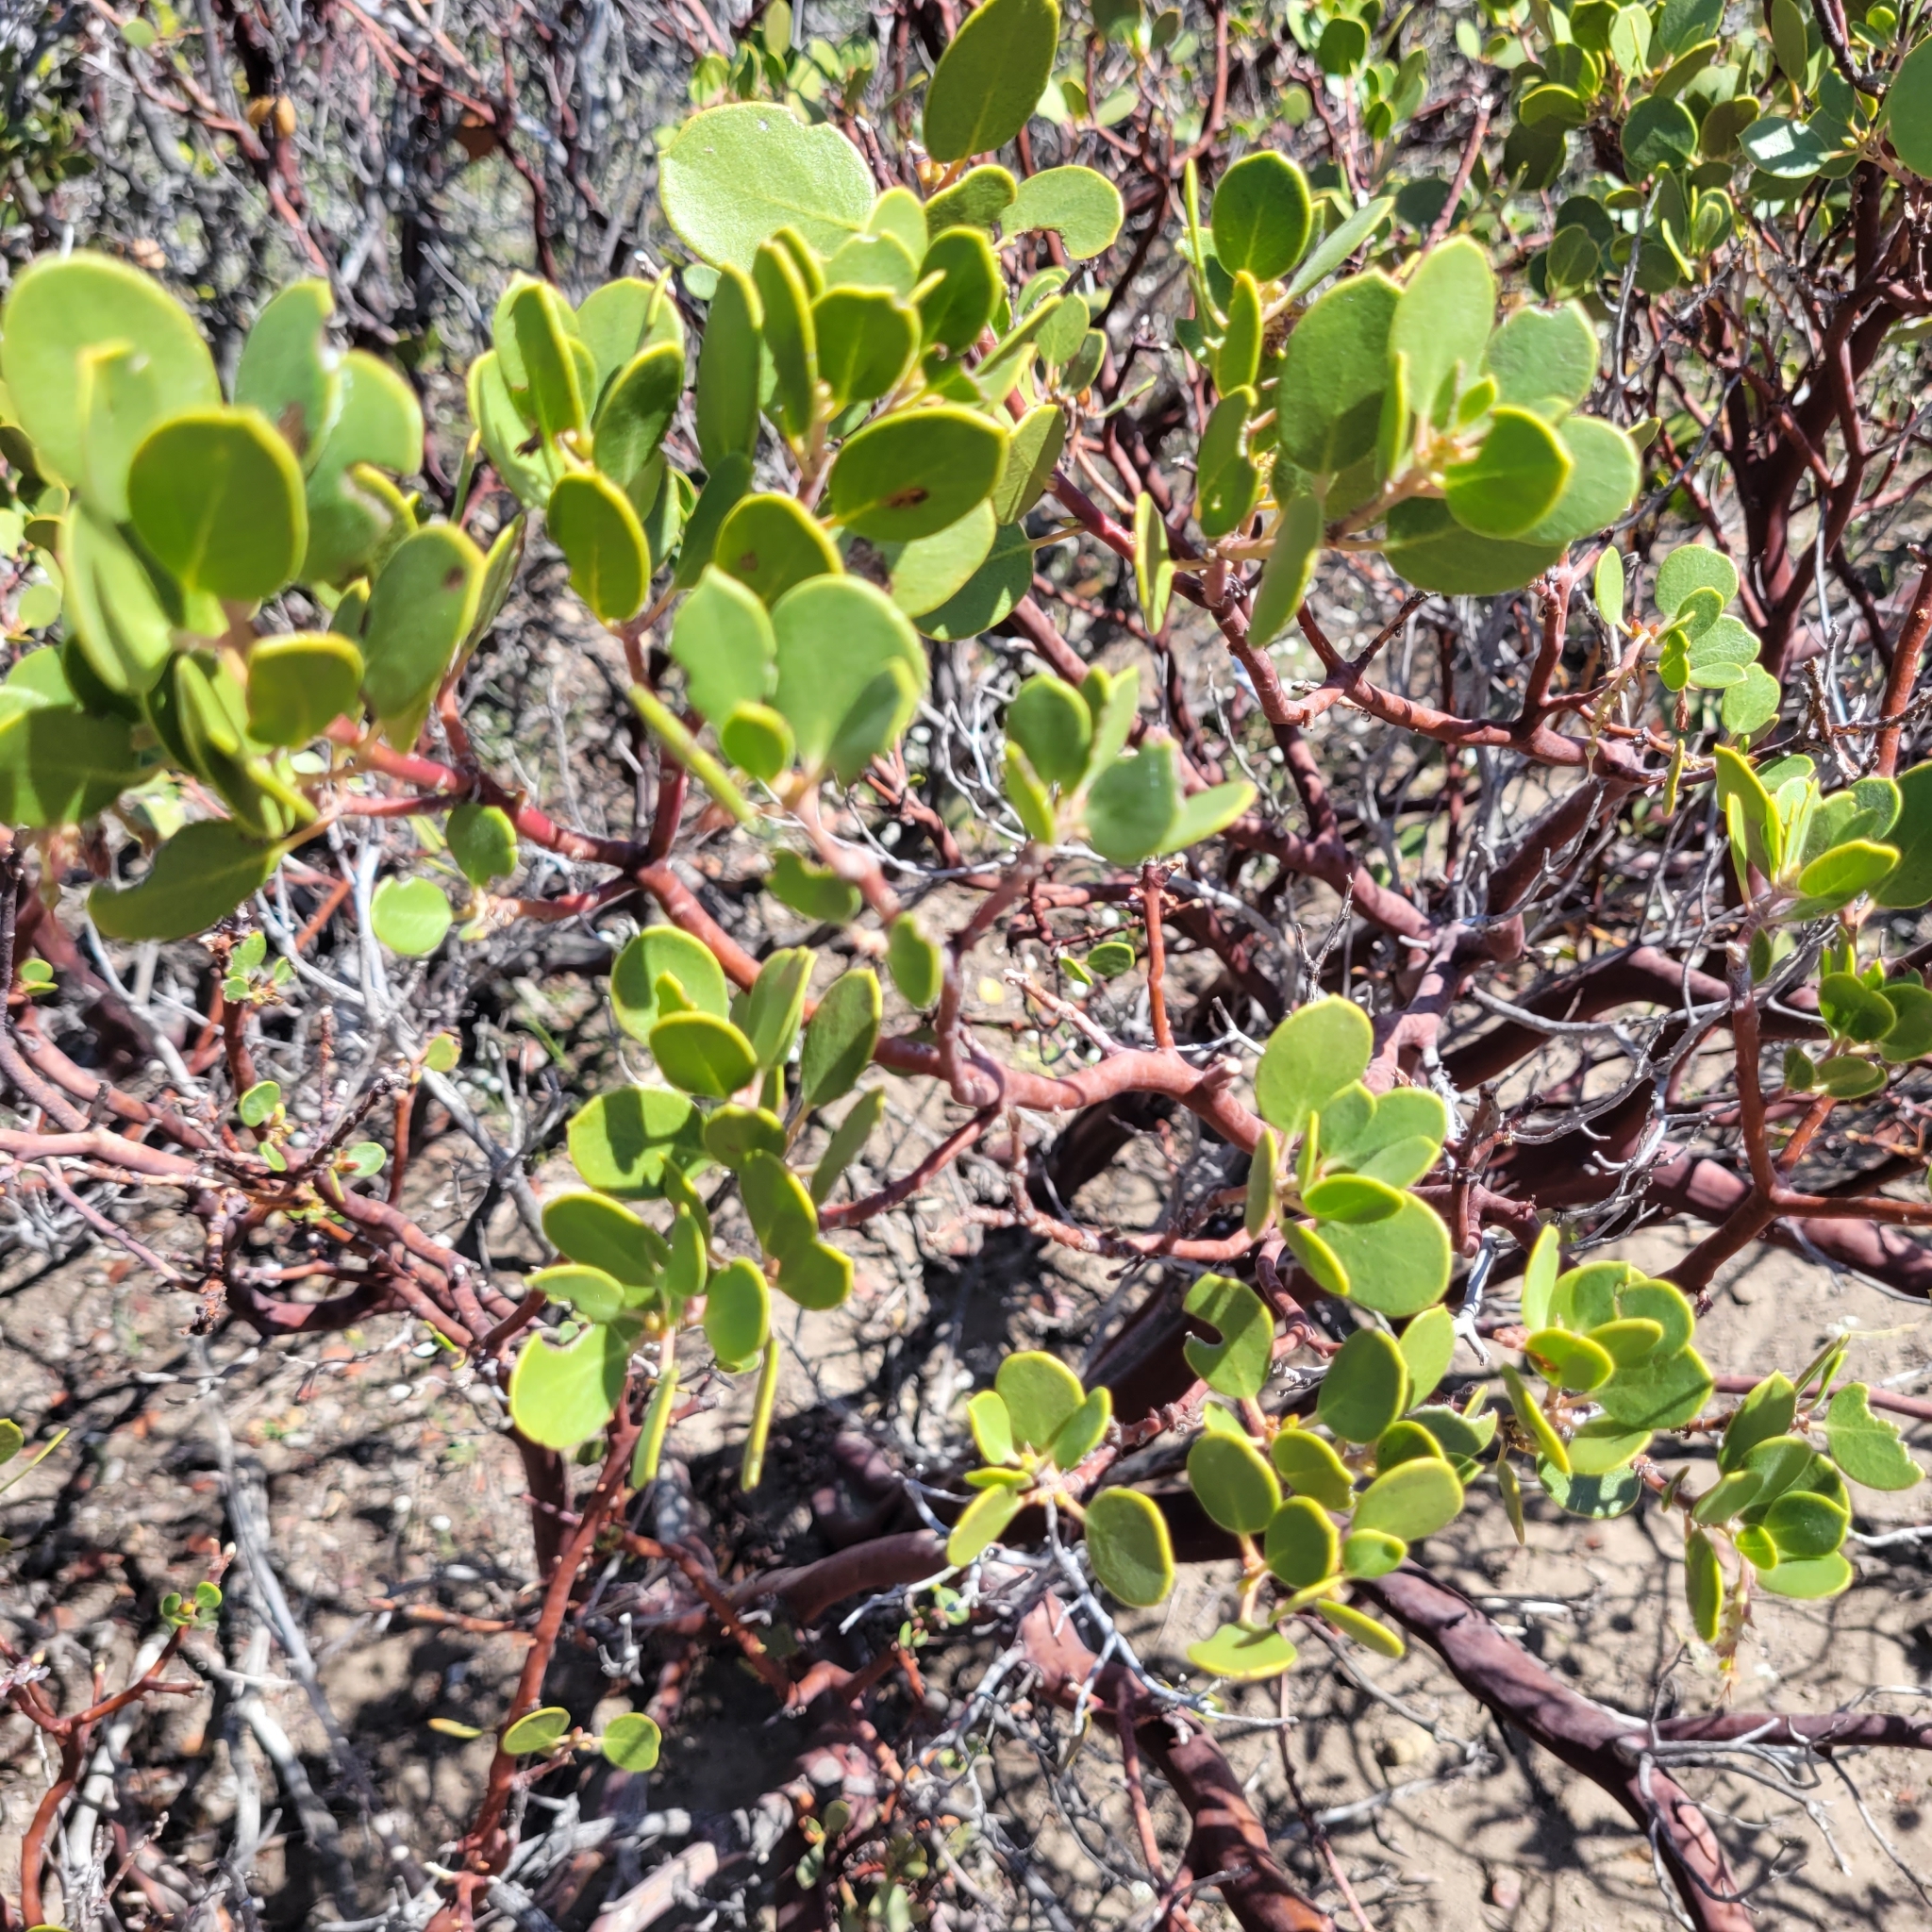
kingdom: Plantae
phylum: Tracheophyta
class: Magnoliopsida
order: Ericales
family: Ericaceae
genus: Arctostaphylos
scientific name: Arctostaphylos patula
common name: Green-leaf manzanita
